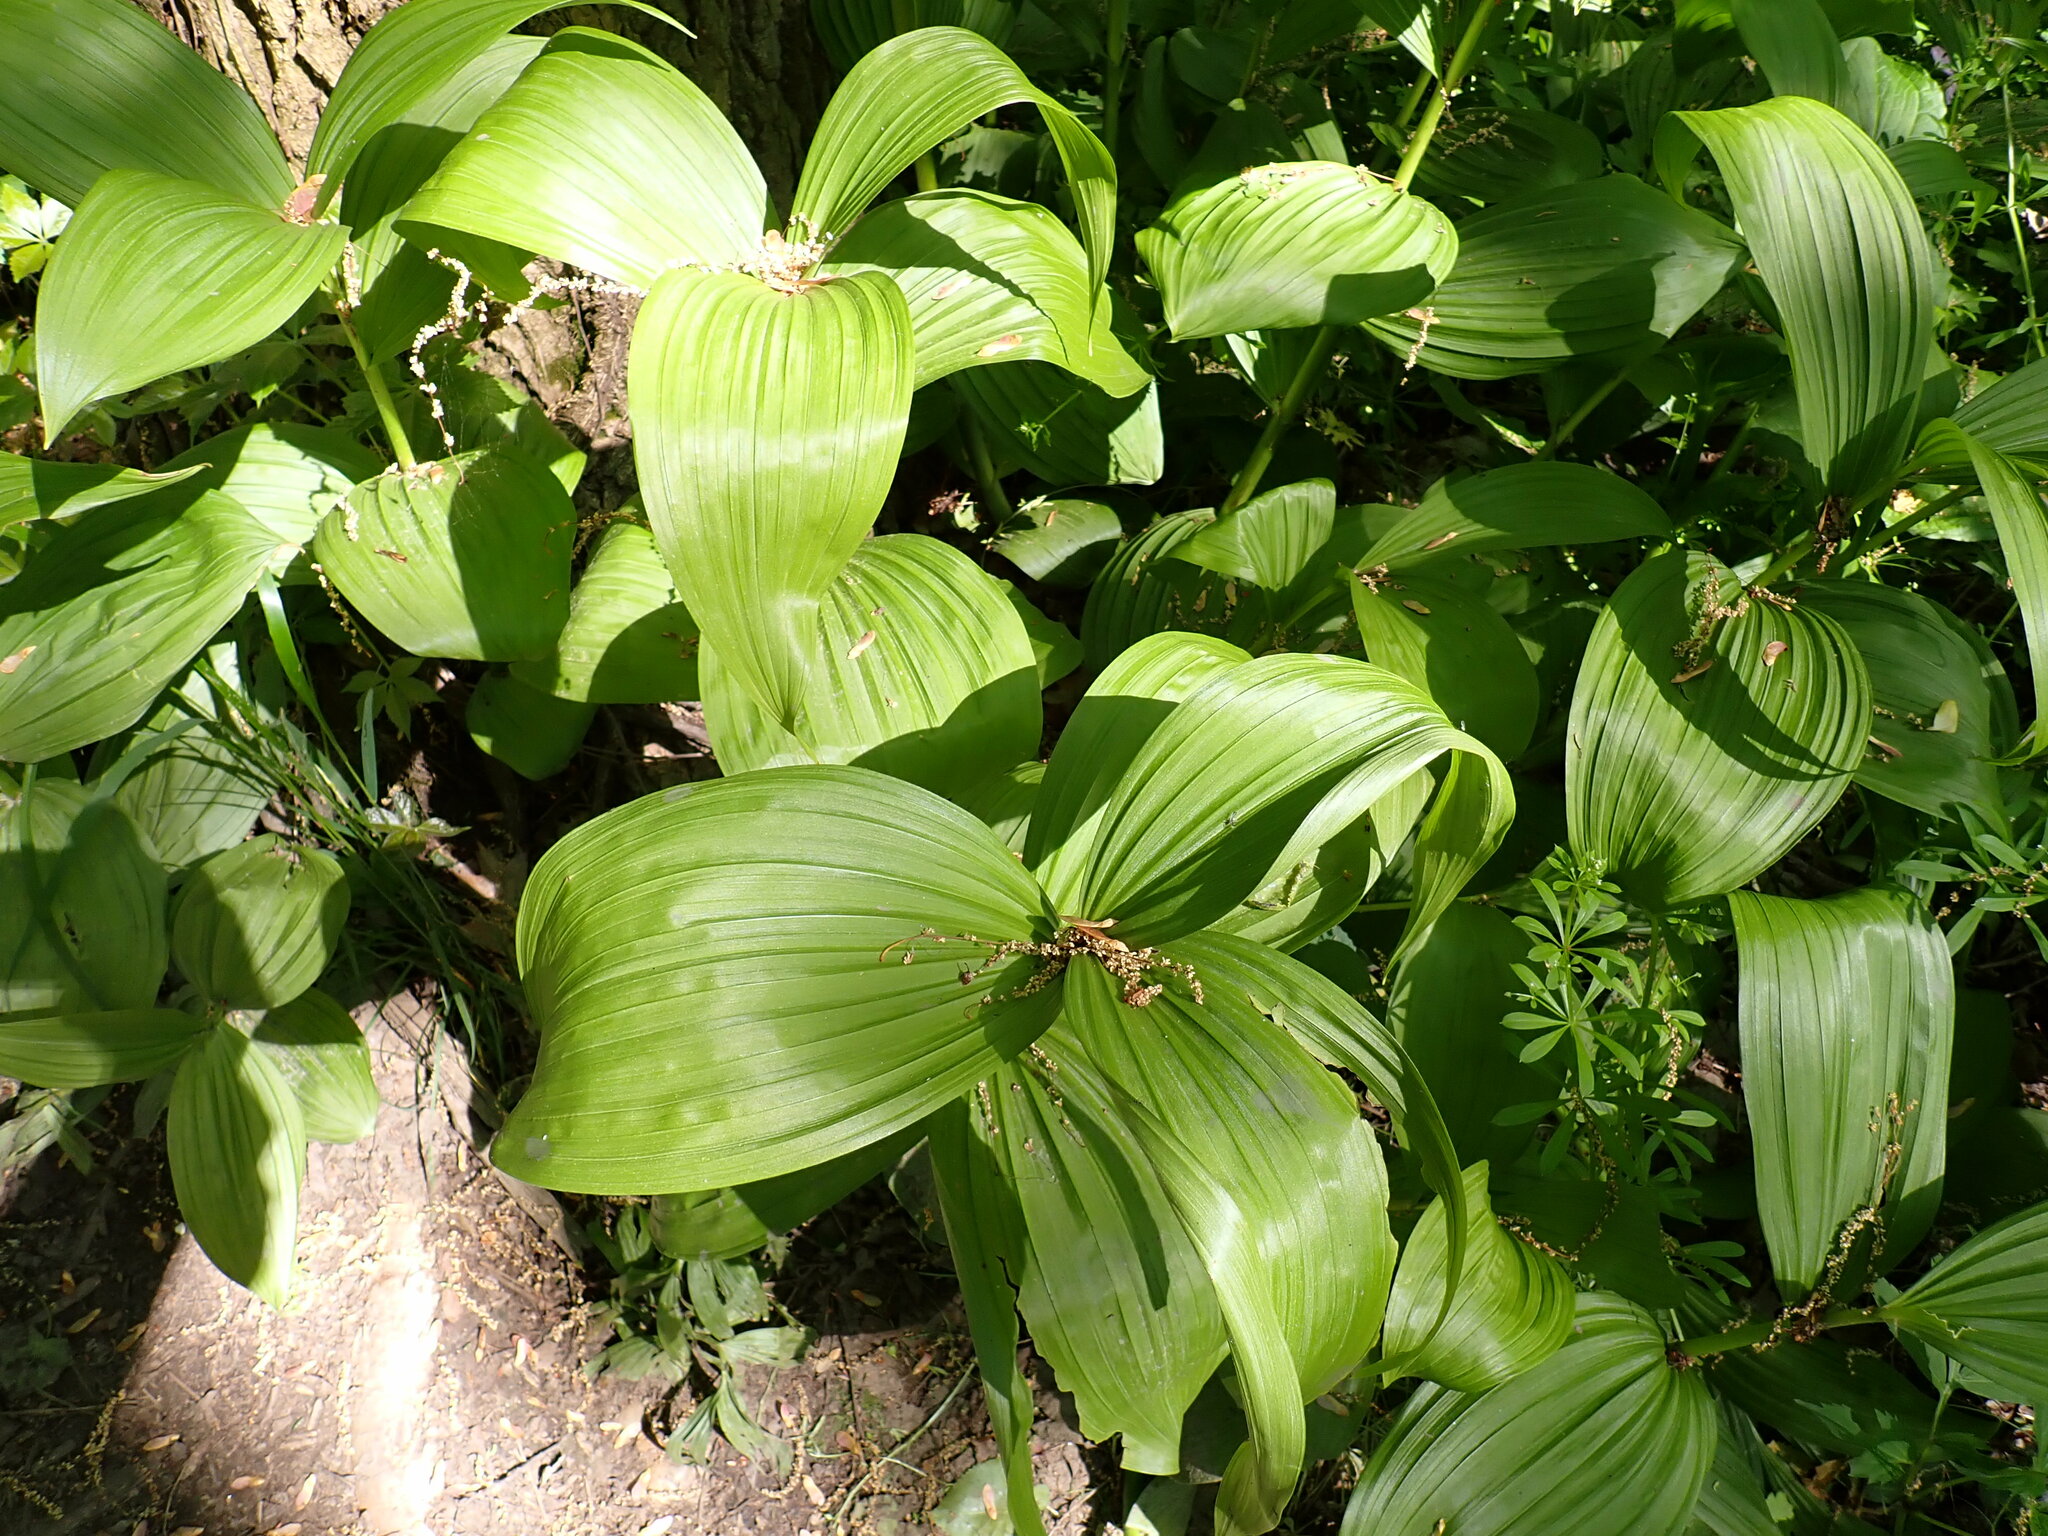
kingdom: Plantae
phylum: Tracheophyta
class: Liliopsida
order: Liliales
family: Melanthiaceae
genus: Veratrum
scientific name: Veratrum viride
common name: American false hellebore
